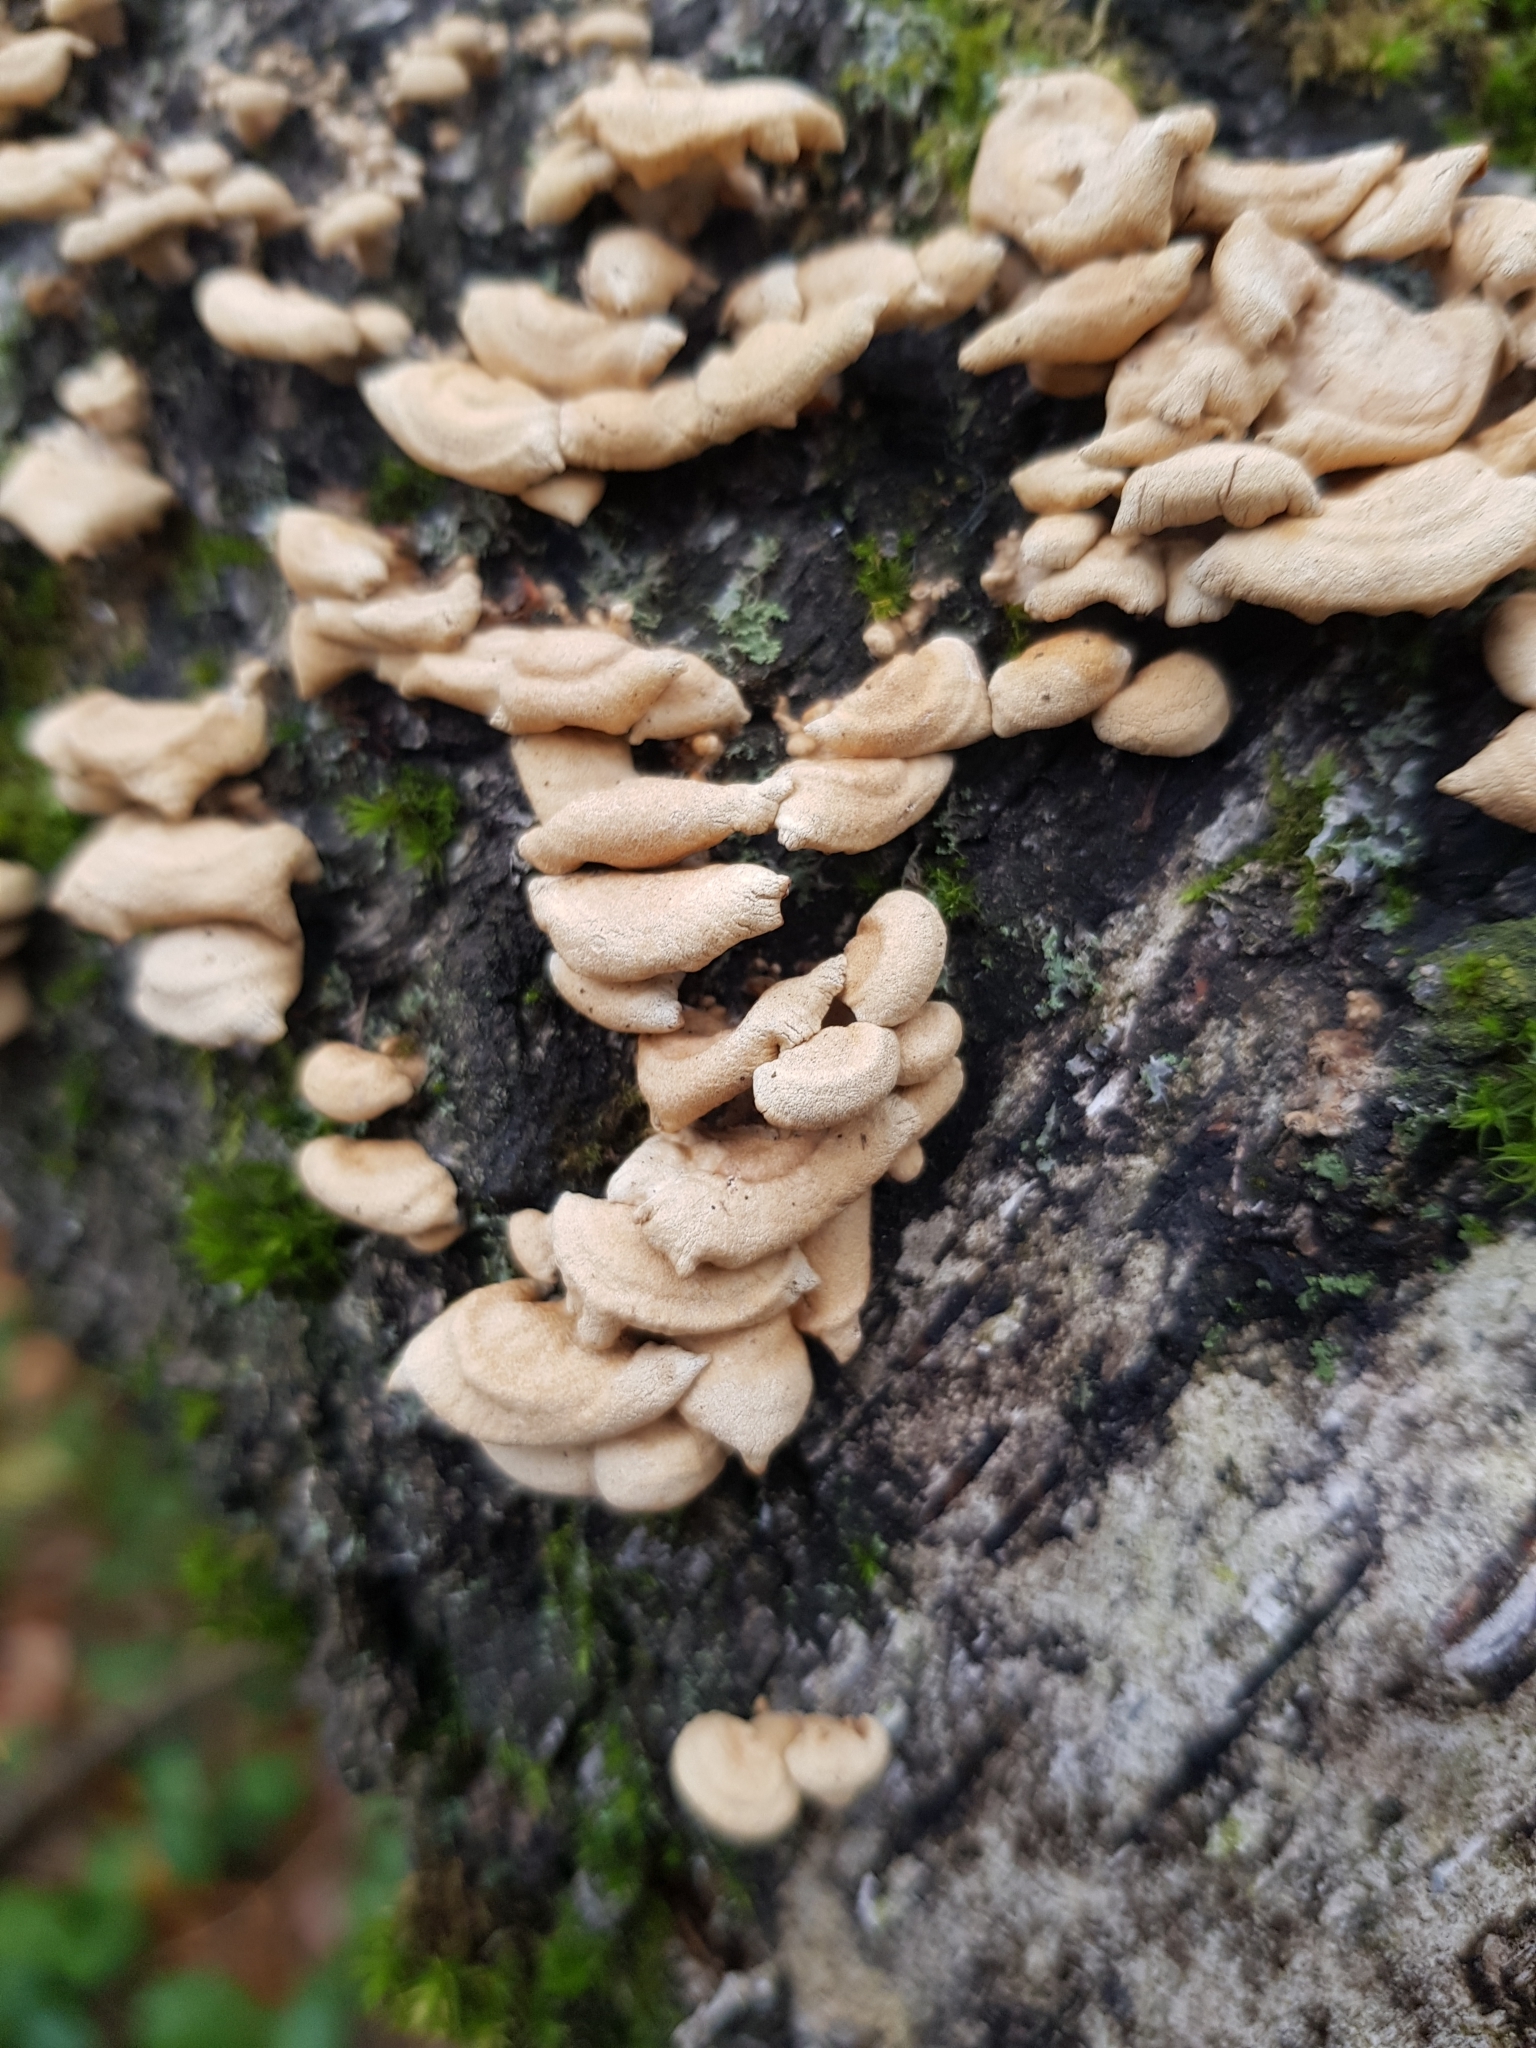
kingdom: Fungi
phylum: Basidiomycota
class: Agaricomycetes
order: Agaricales
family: Mycenaceae
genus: Panellus
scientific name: Panellus stipticus
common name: Bitter oysterling
